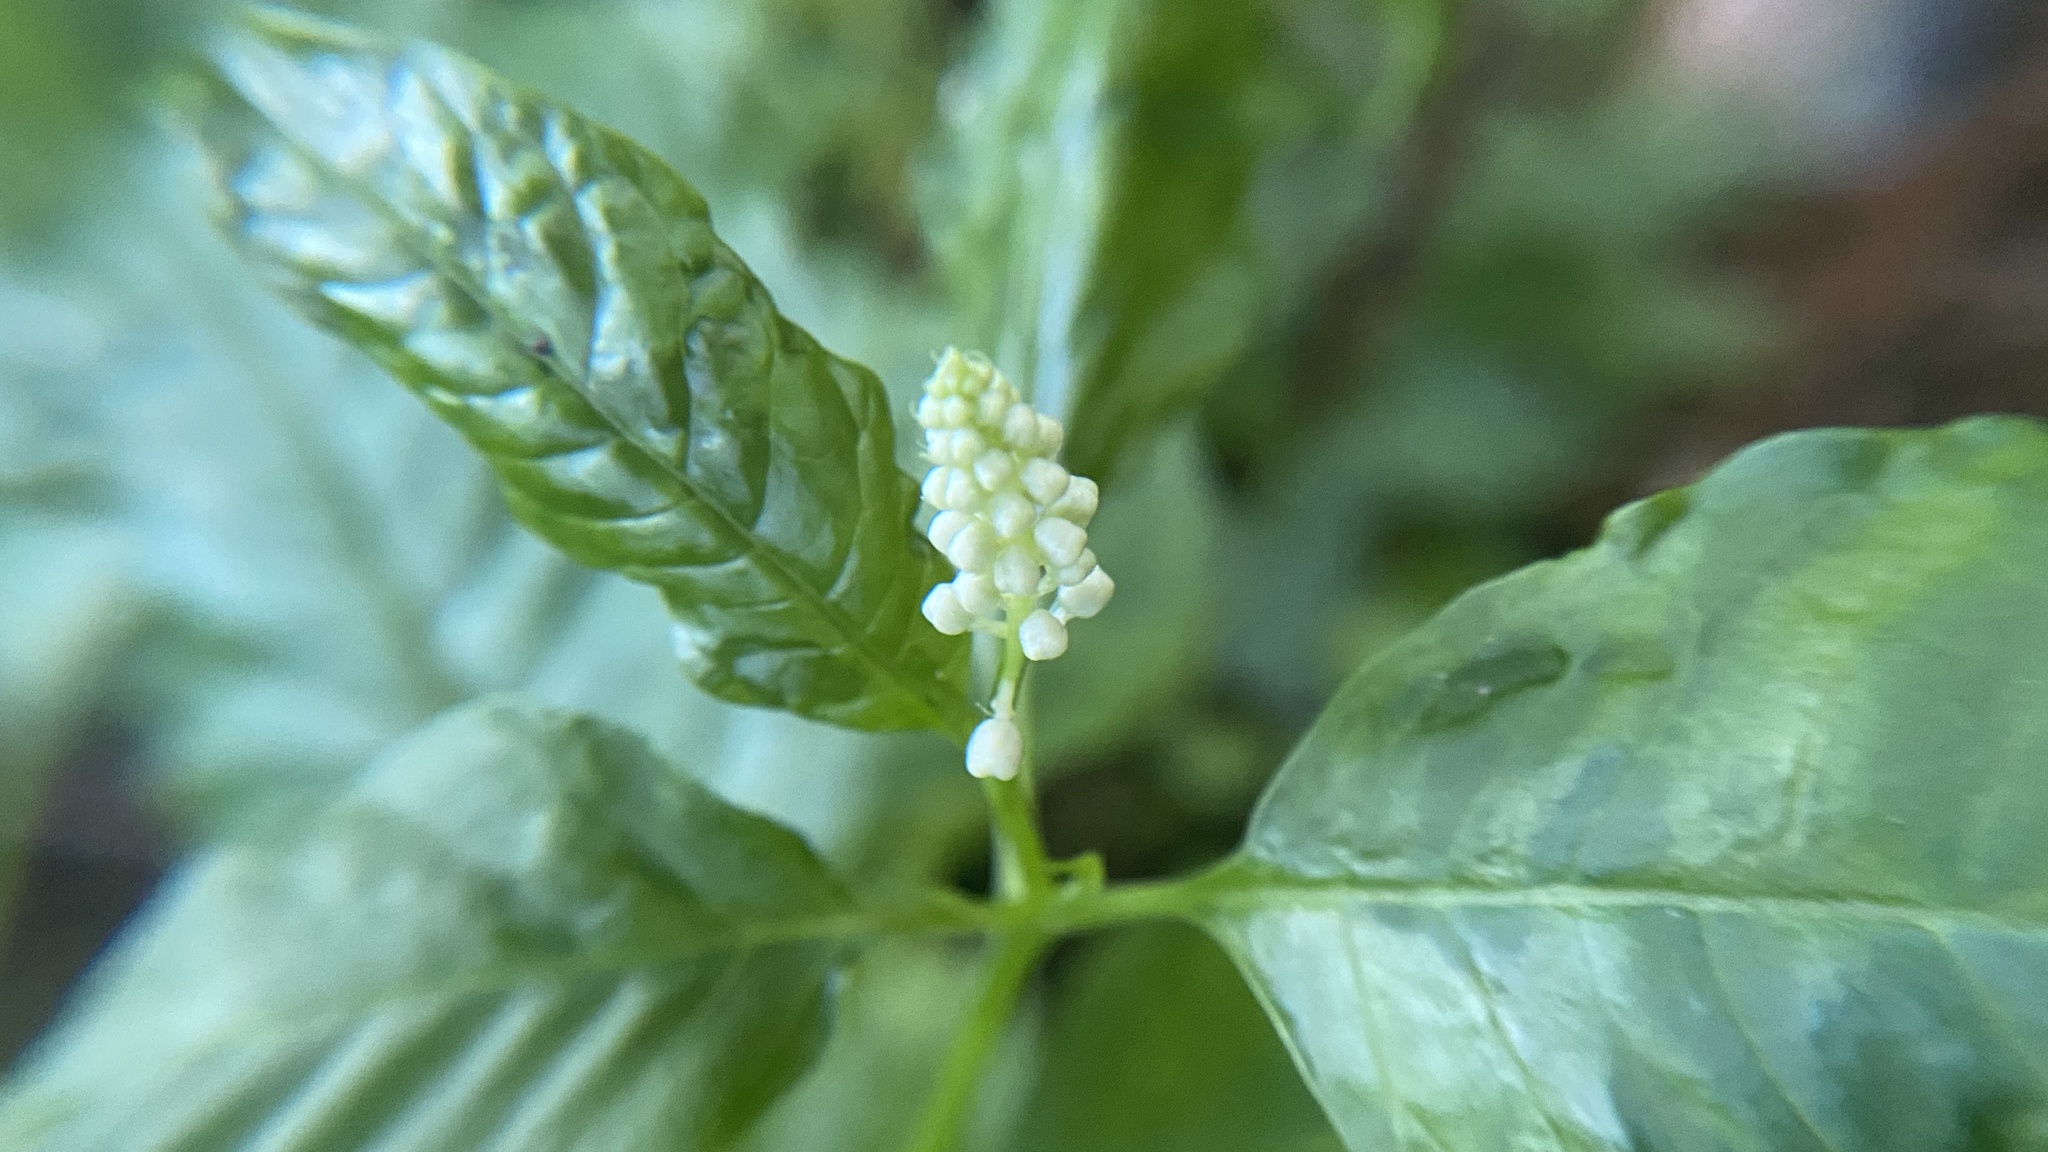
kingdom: Plantae
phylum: Tracheophyta
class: Magnoliopsida
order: Caryophyllales
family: Phytolaccaceae
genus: Phytolacca
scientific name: Phytolacca americana
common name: American pokeweed
